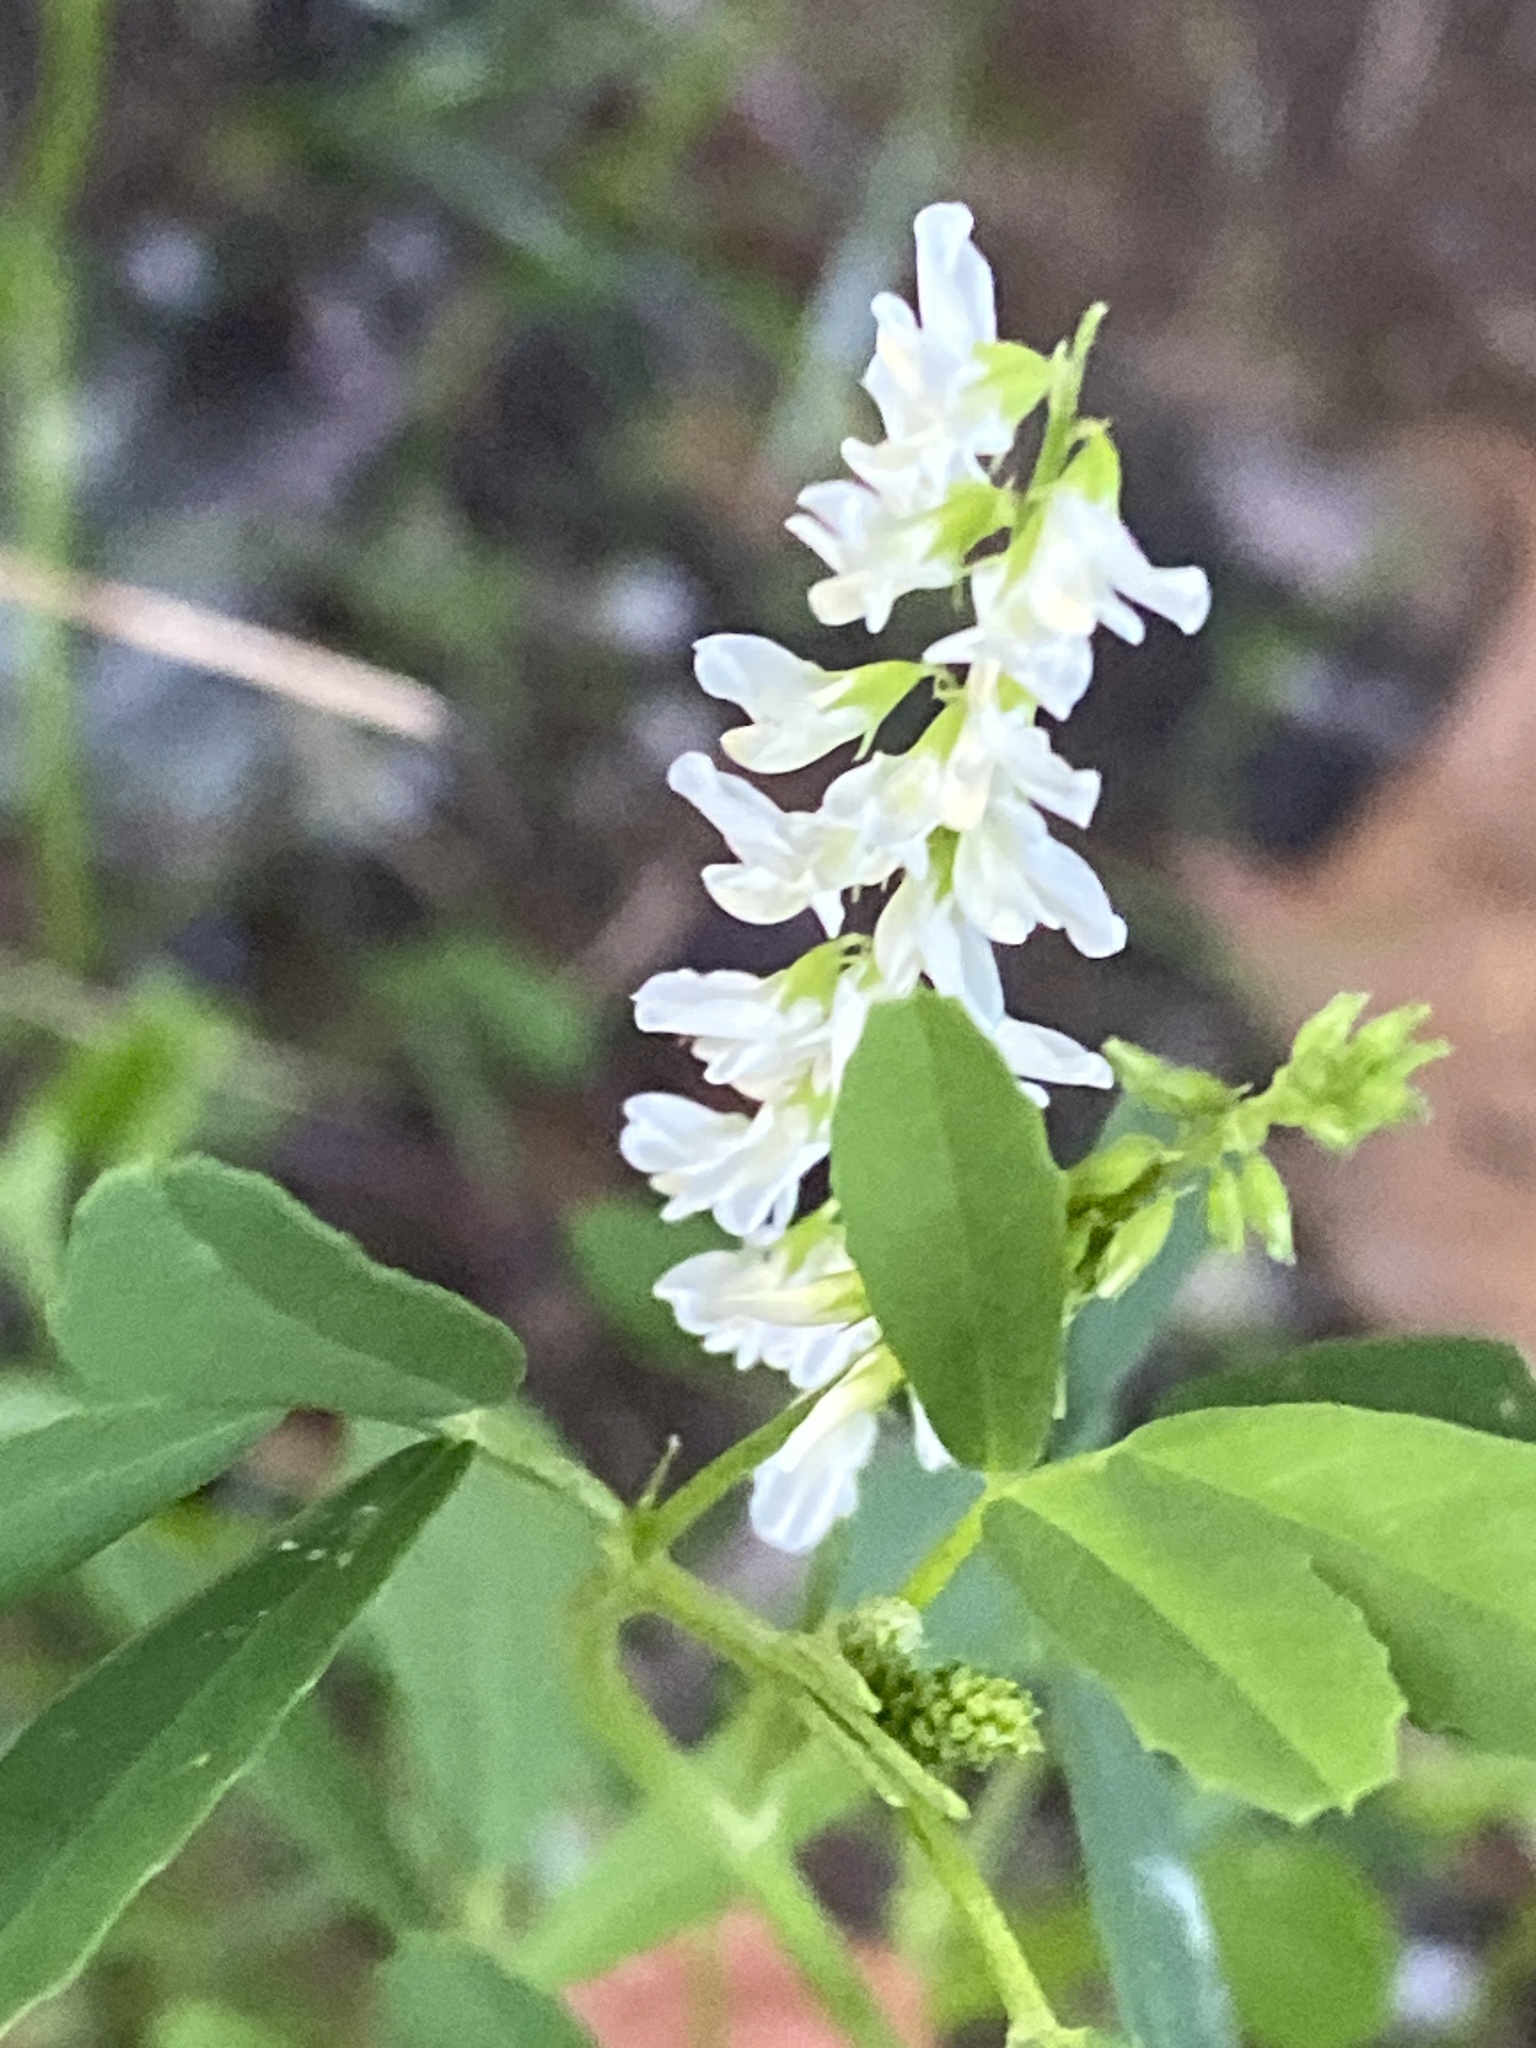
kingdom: Plantae
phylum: Tracheophyta
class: Magnoliopsida
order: Fabales
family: Fabaceae
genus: Melilotus
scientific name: Melilotus albus
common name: White melilot
